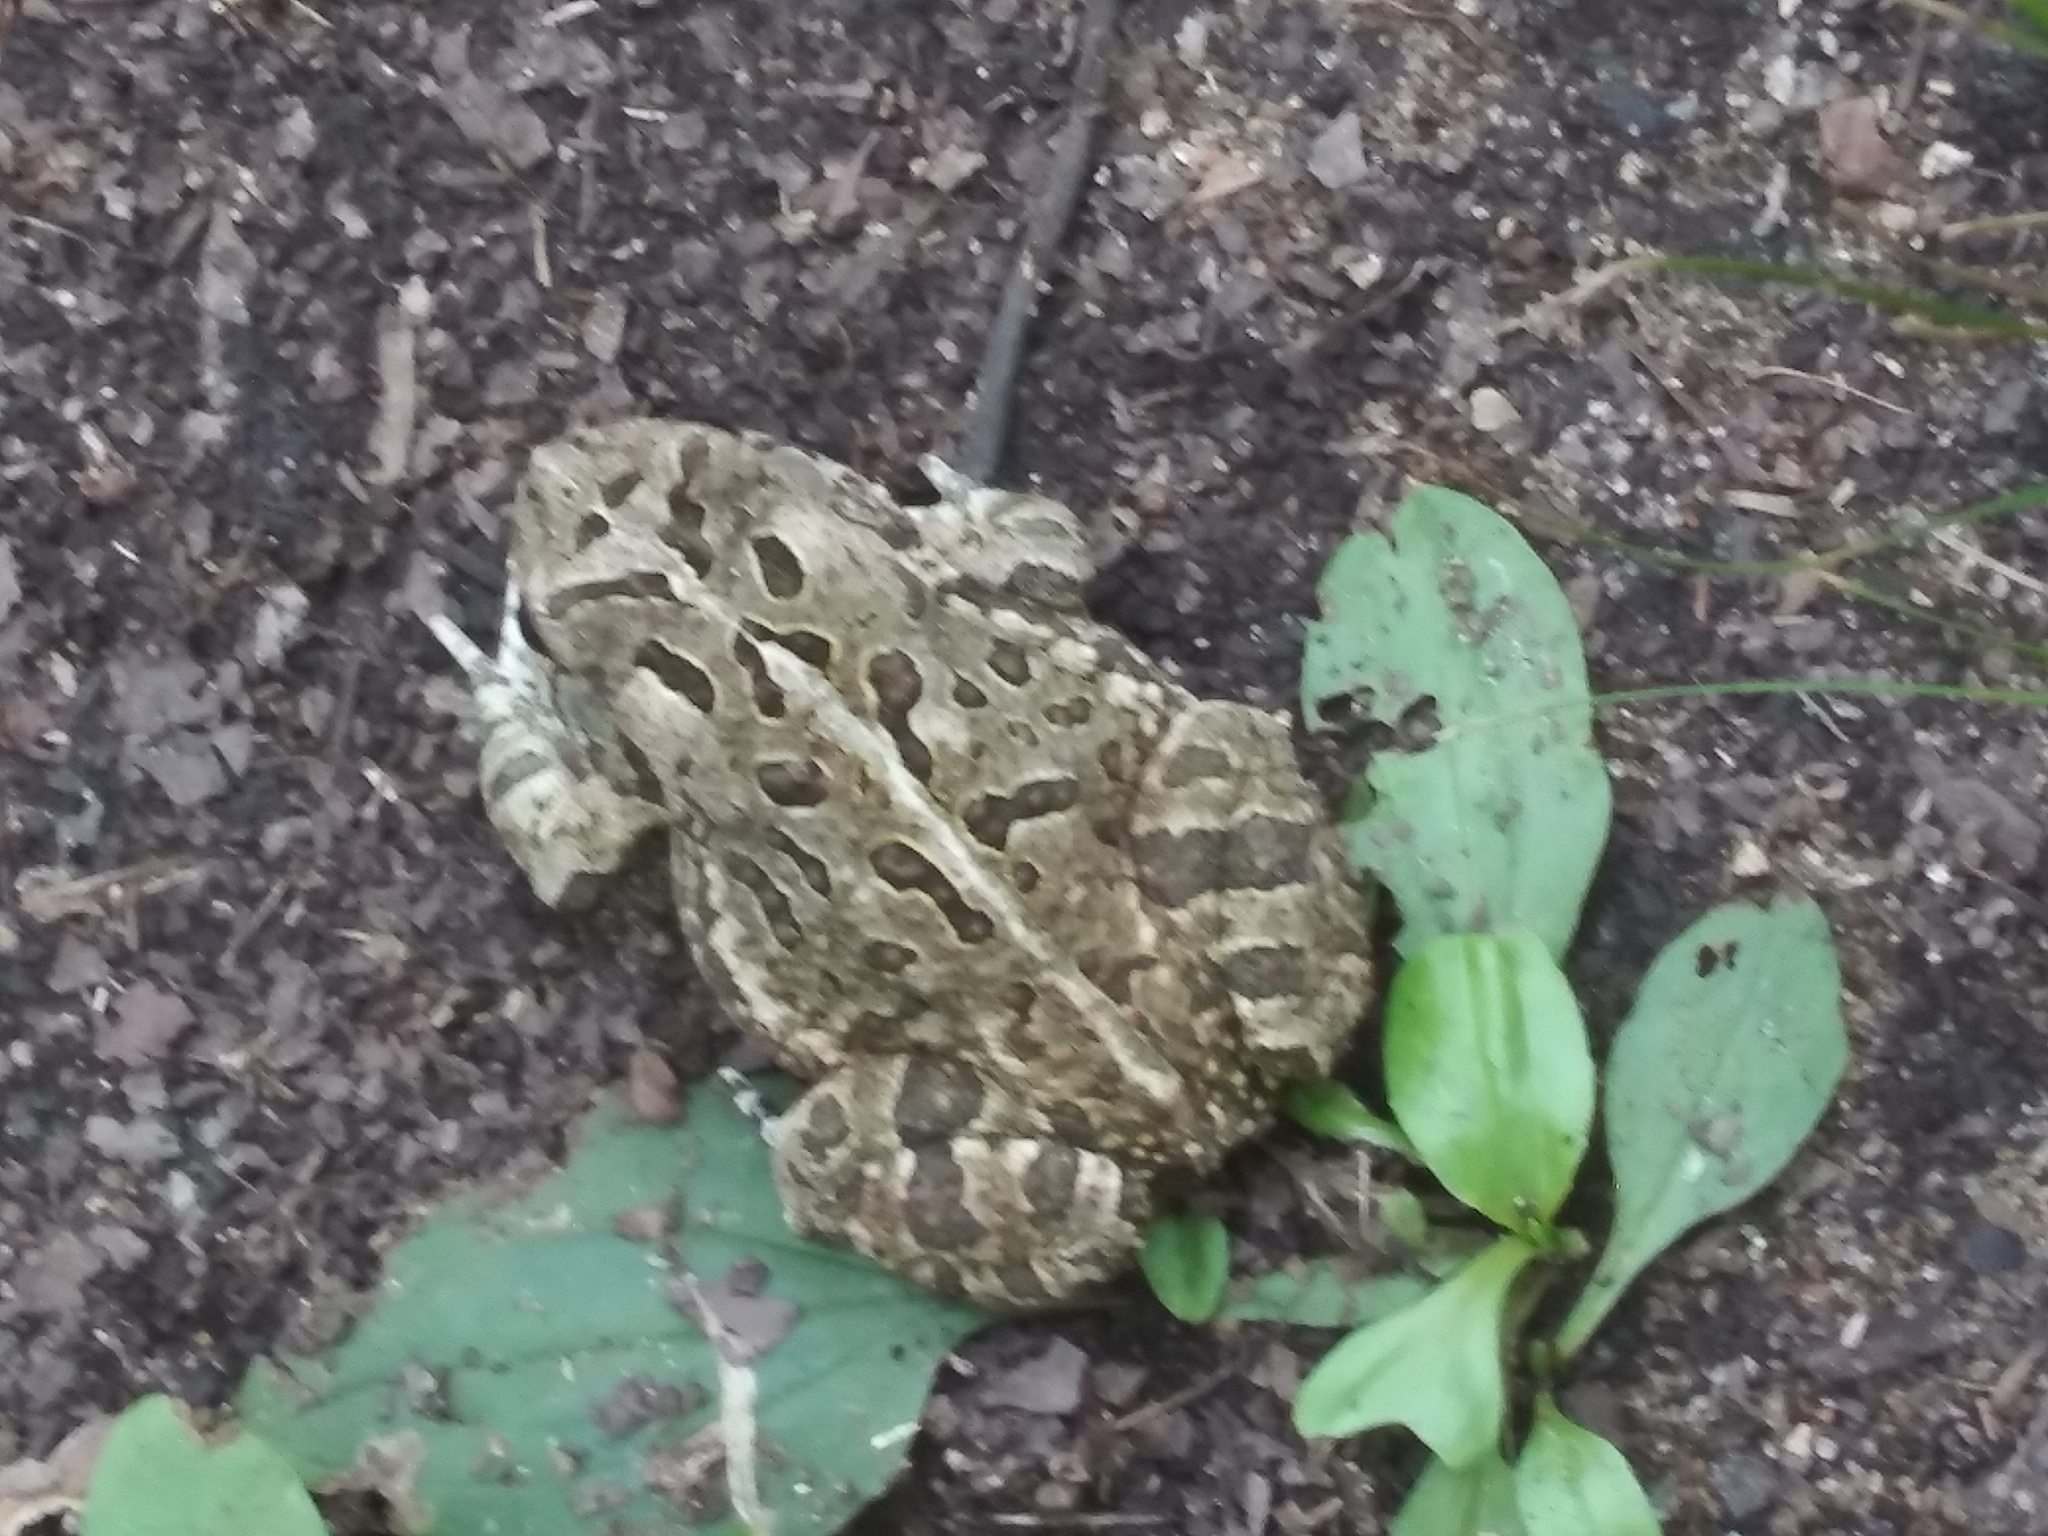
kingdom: Animalia
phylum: Chordata
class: Amphibia
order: Anura
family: Bufonidae
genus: Anaxyrus
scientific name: Anaxyrus fowleri
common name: Fowler's toad
